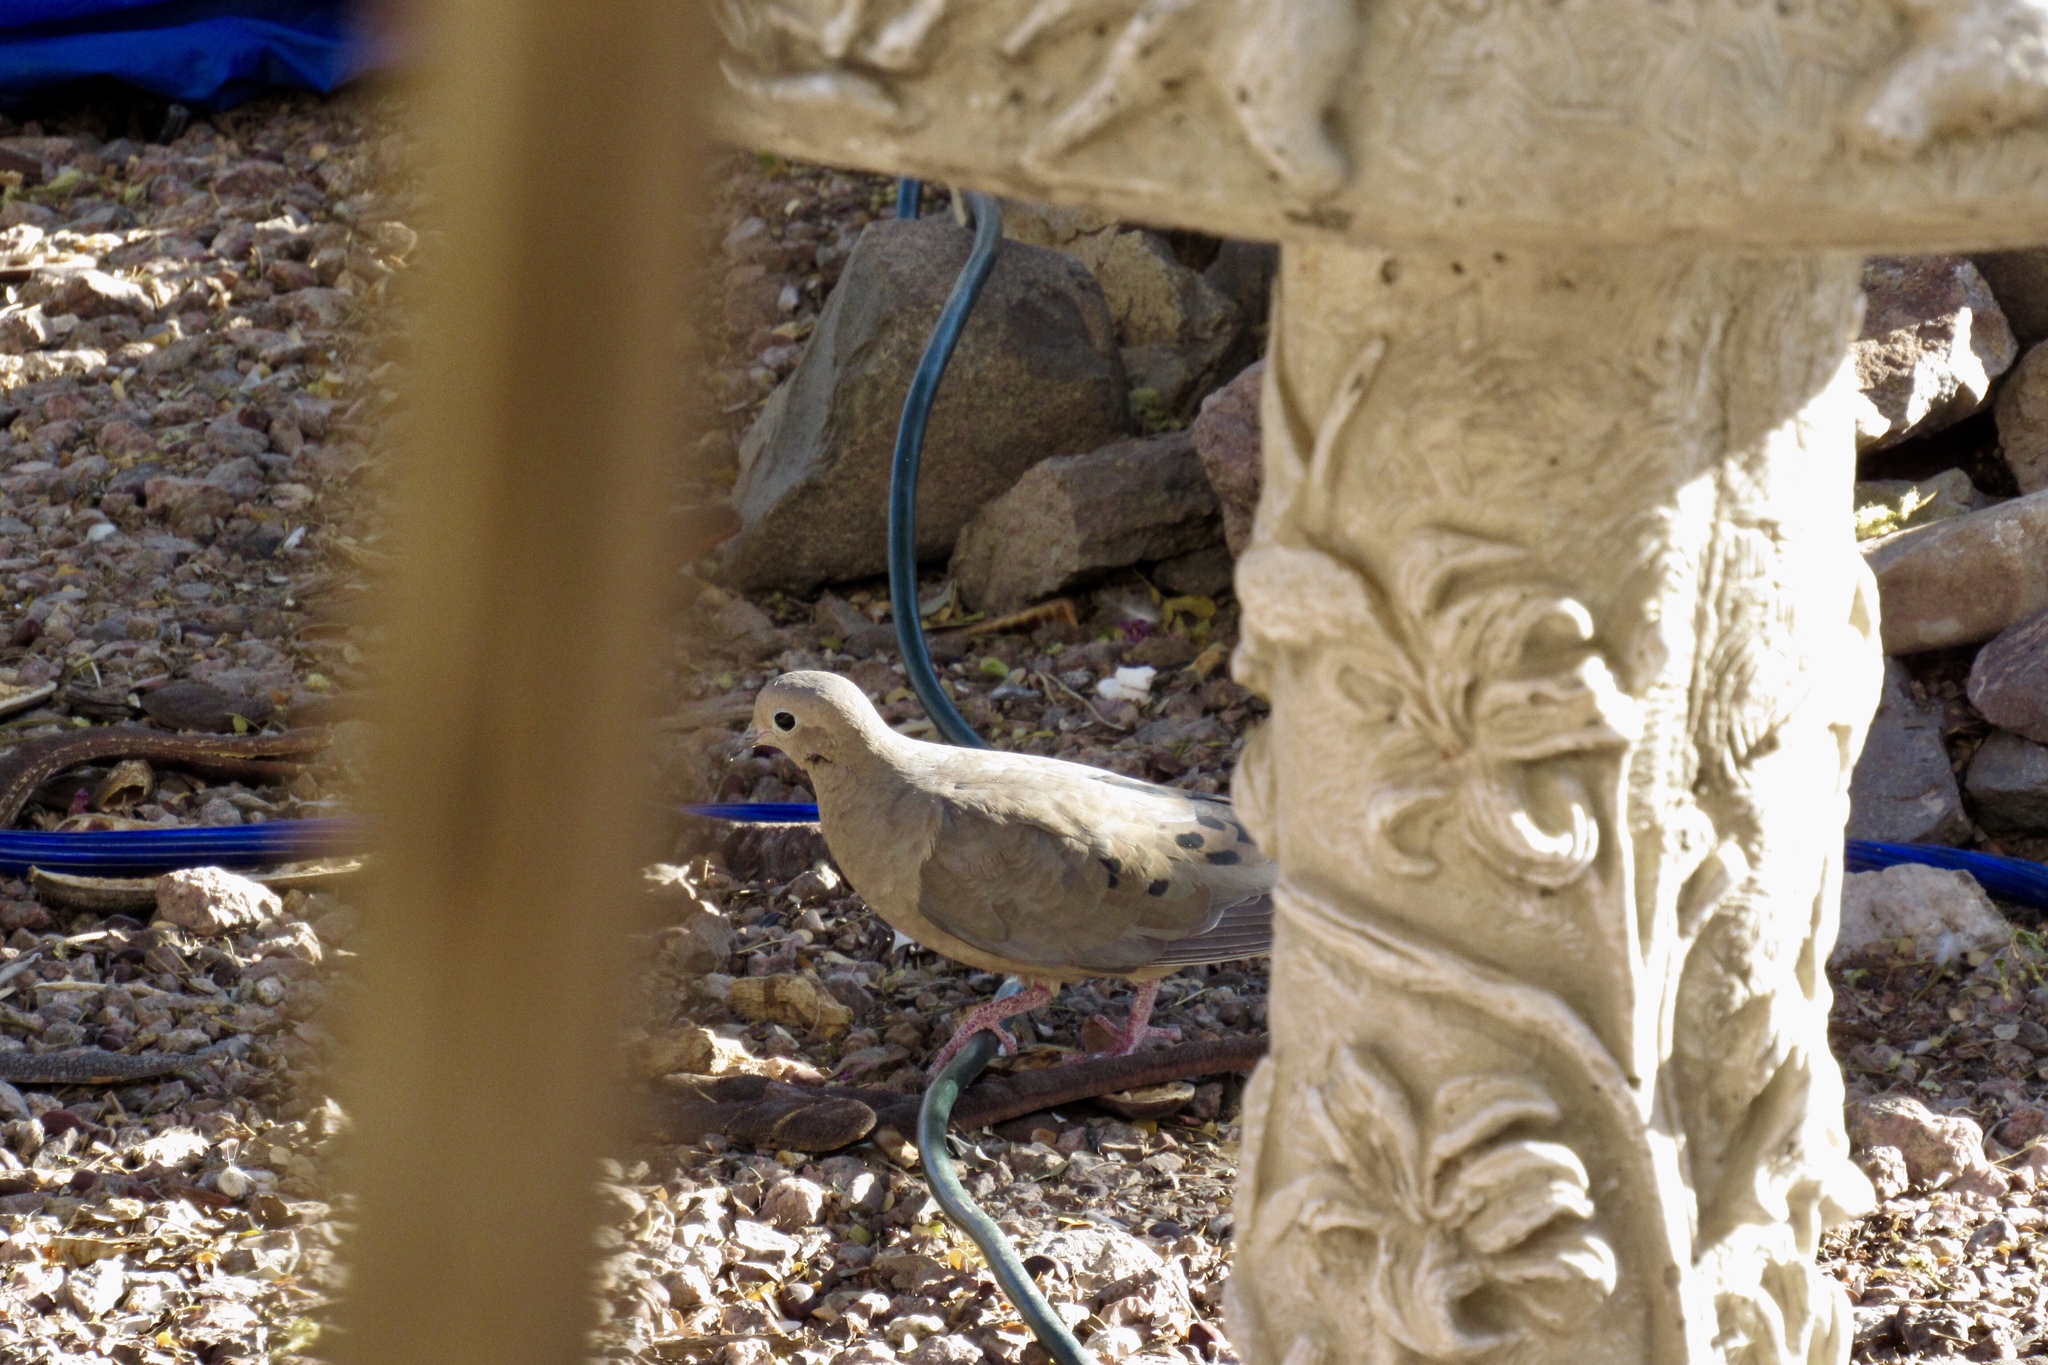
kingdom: Animalia
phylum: Chordata
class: Aves
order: Columbiformes
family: Columbidae
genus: Zenaida
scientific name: Zenaida macroura
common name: Mourning dove
